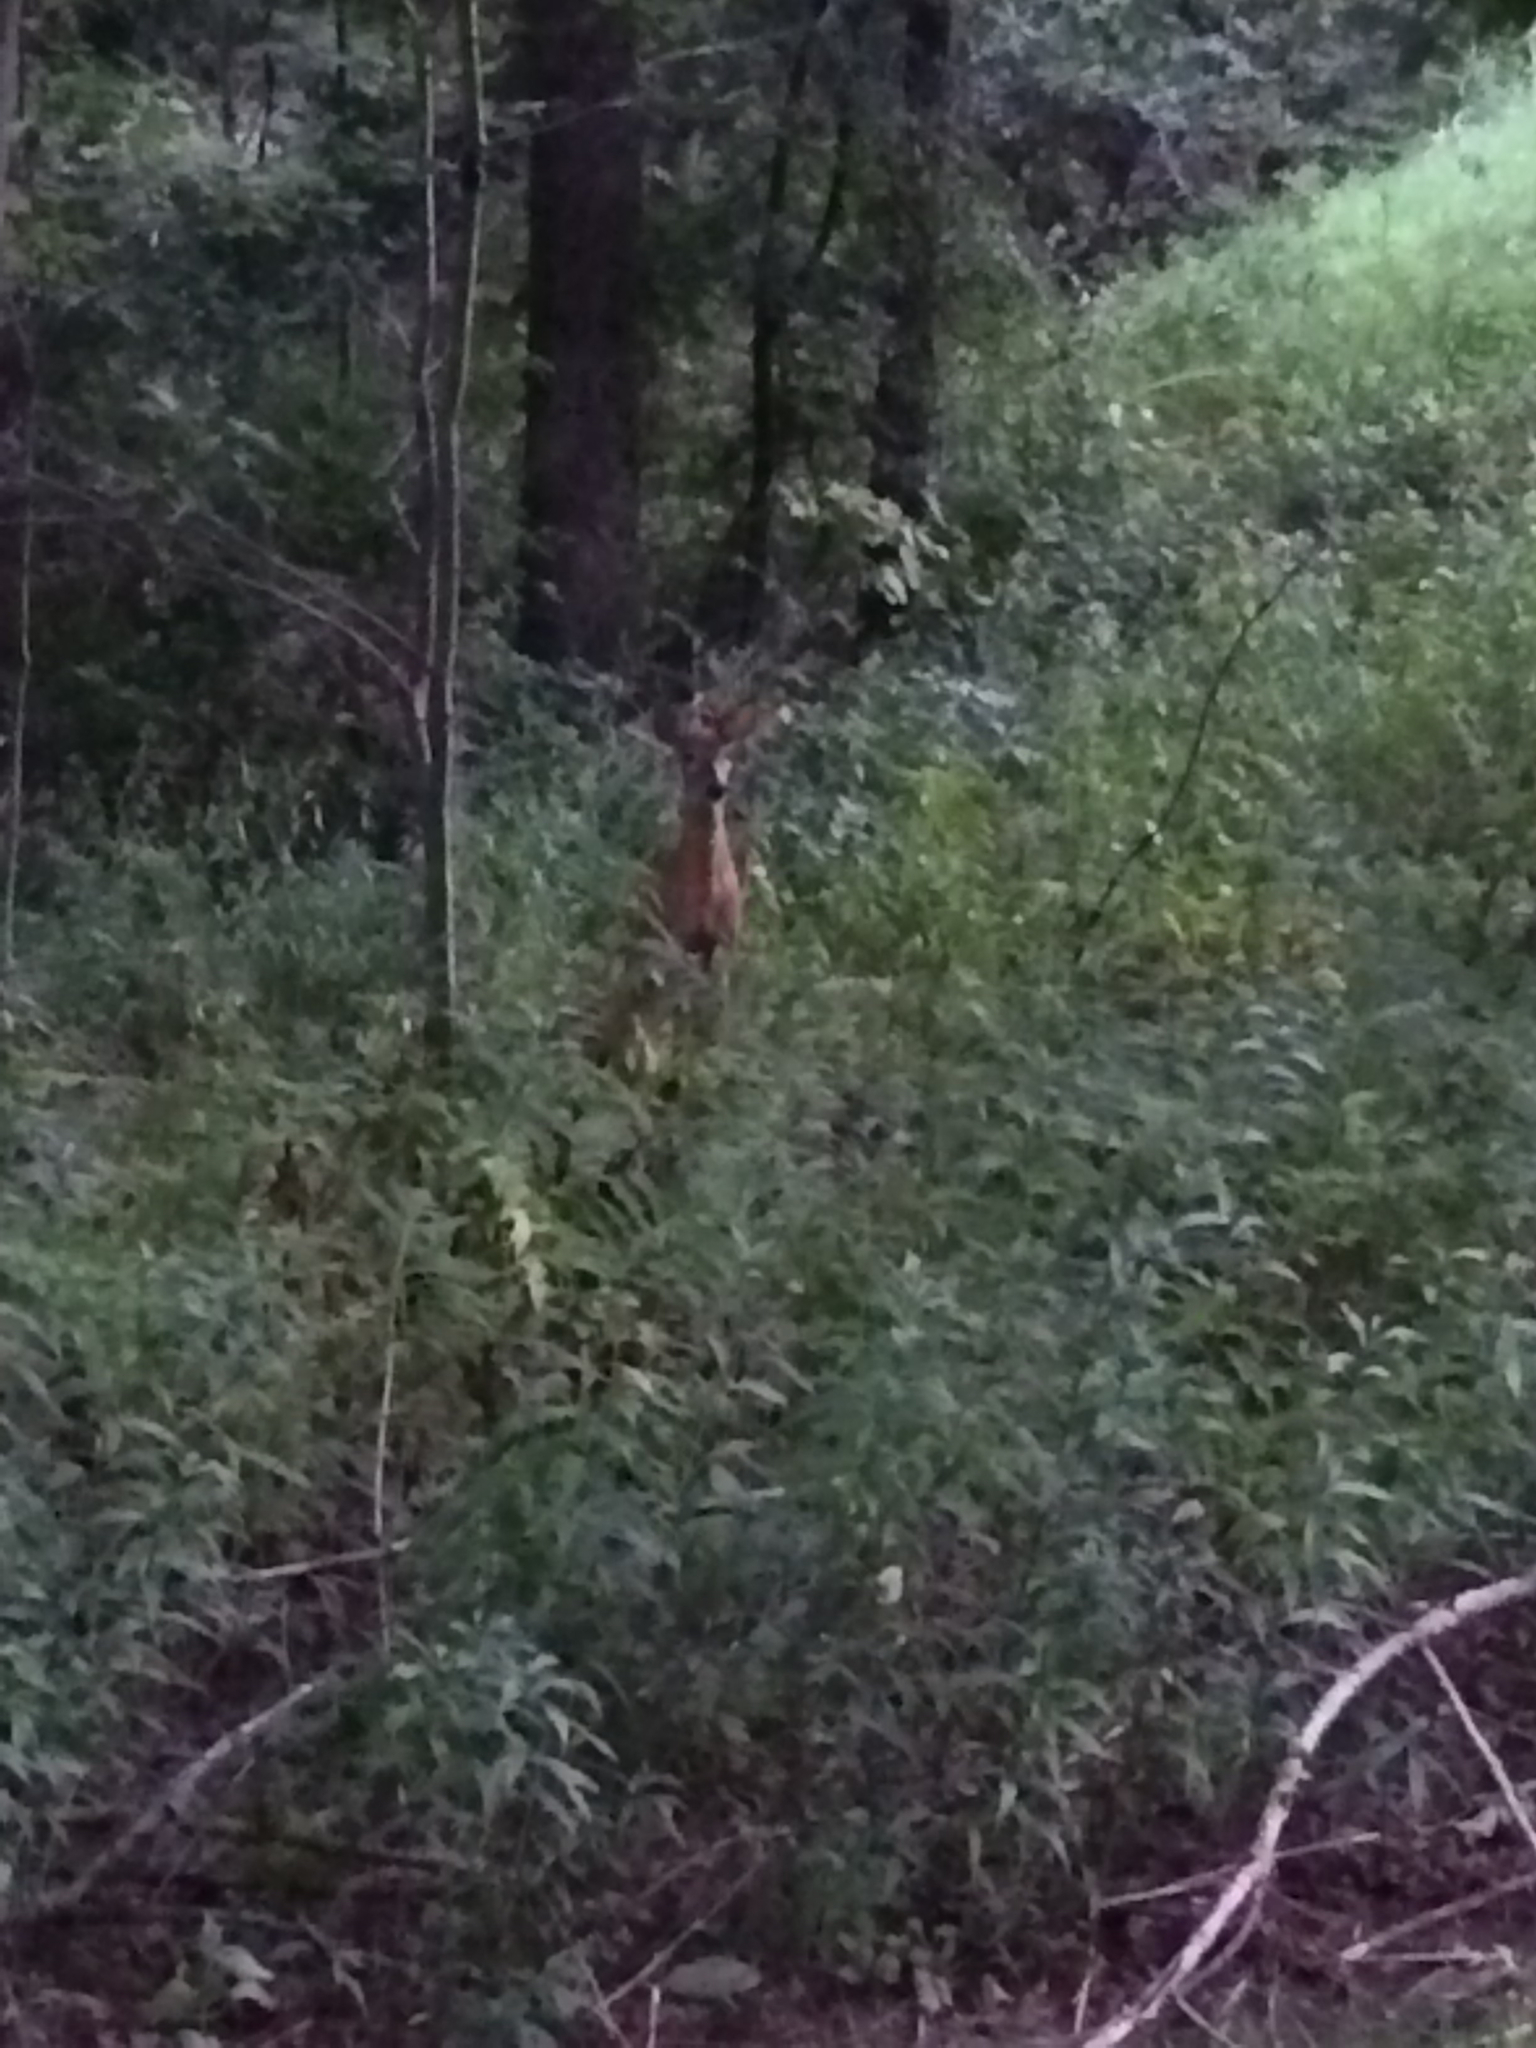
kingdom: Animalia
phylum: Chordata
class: Mammalia
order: Artiodactyla
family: Cervidae
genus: Odocoileus
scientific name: Odocoileus virginianus
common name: White-tailed deer
